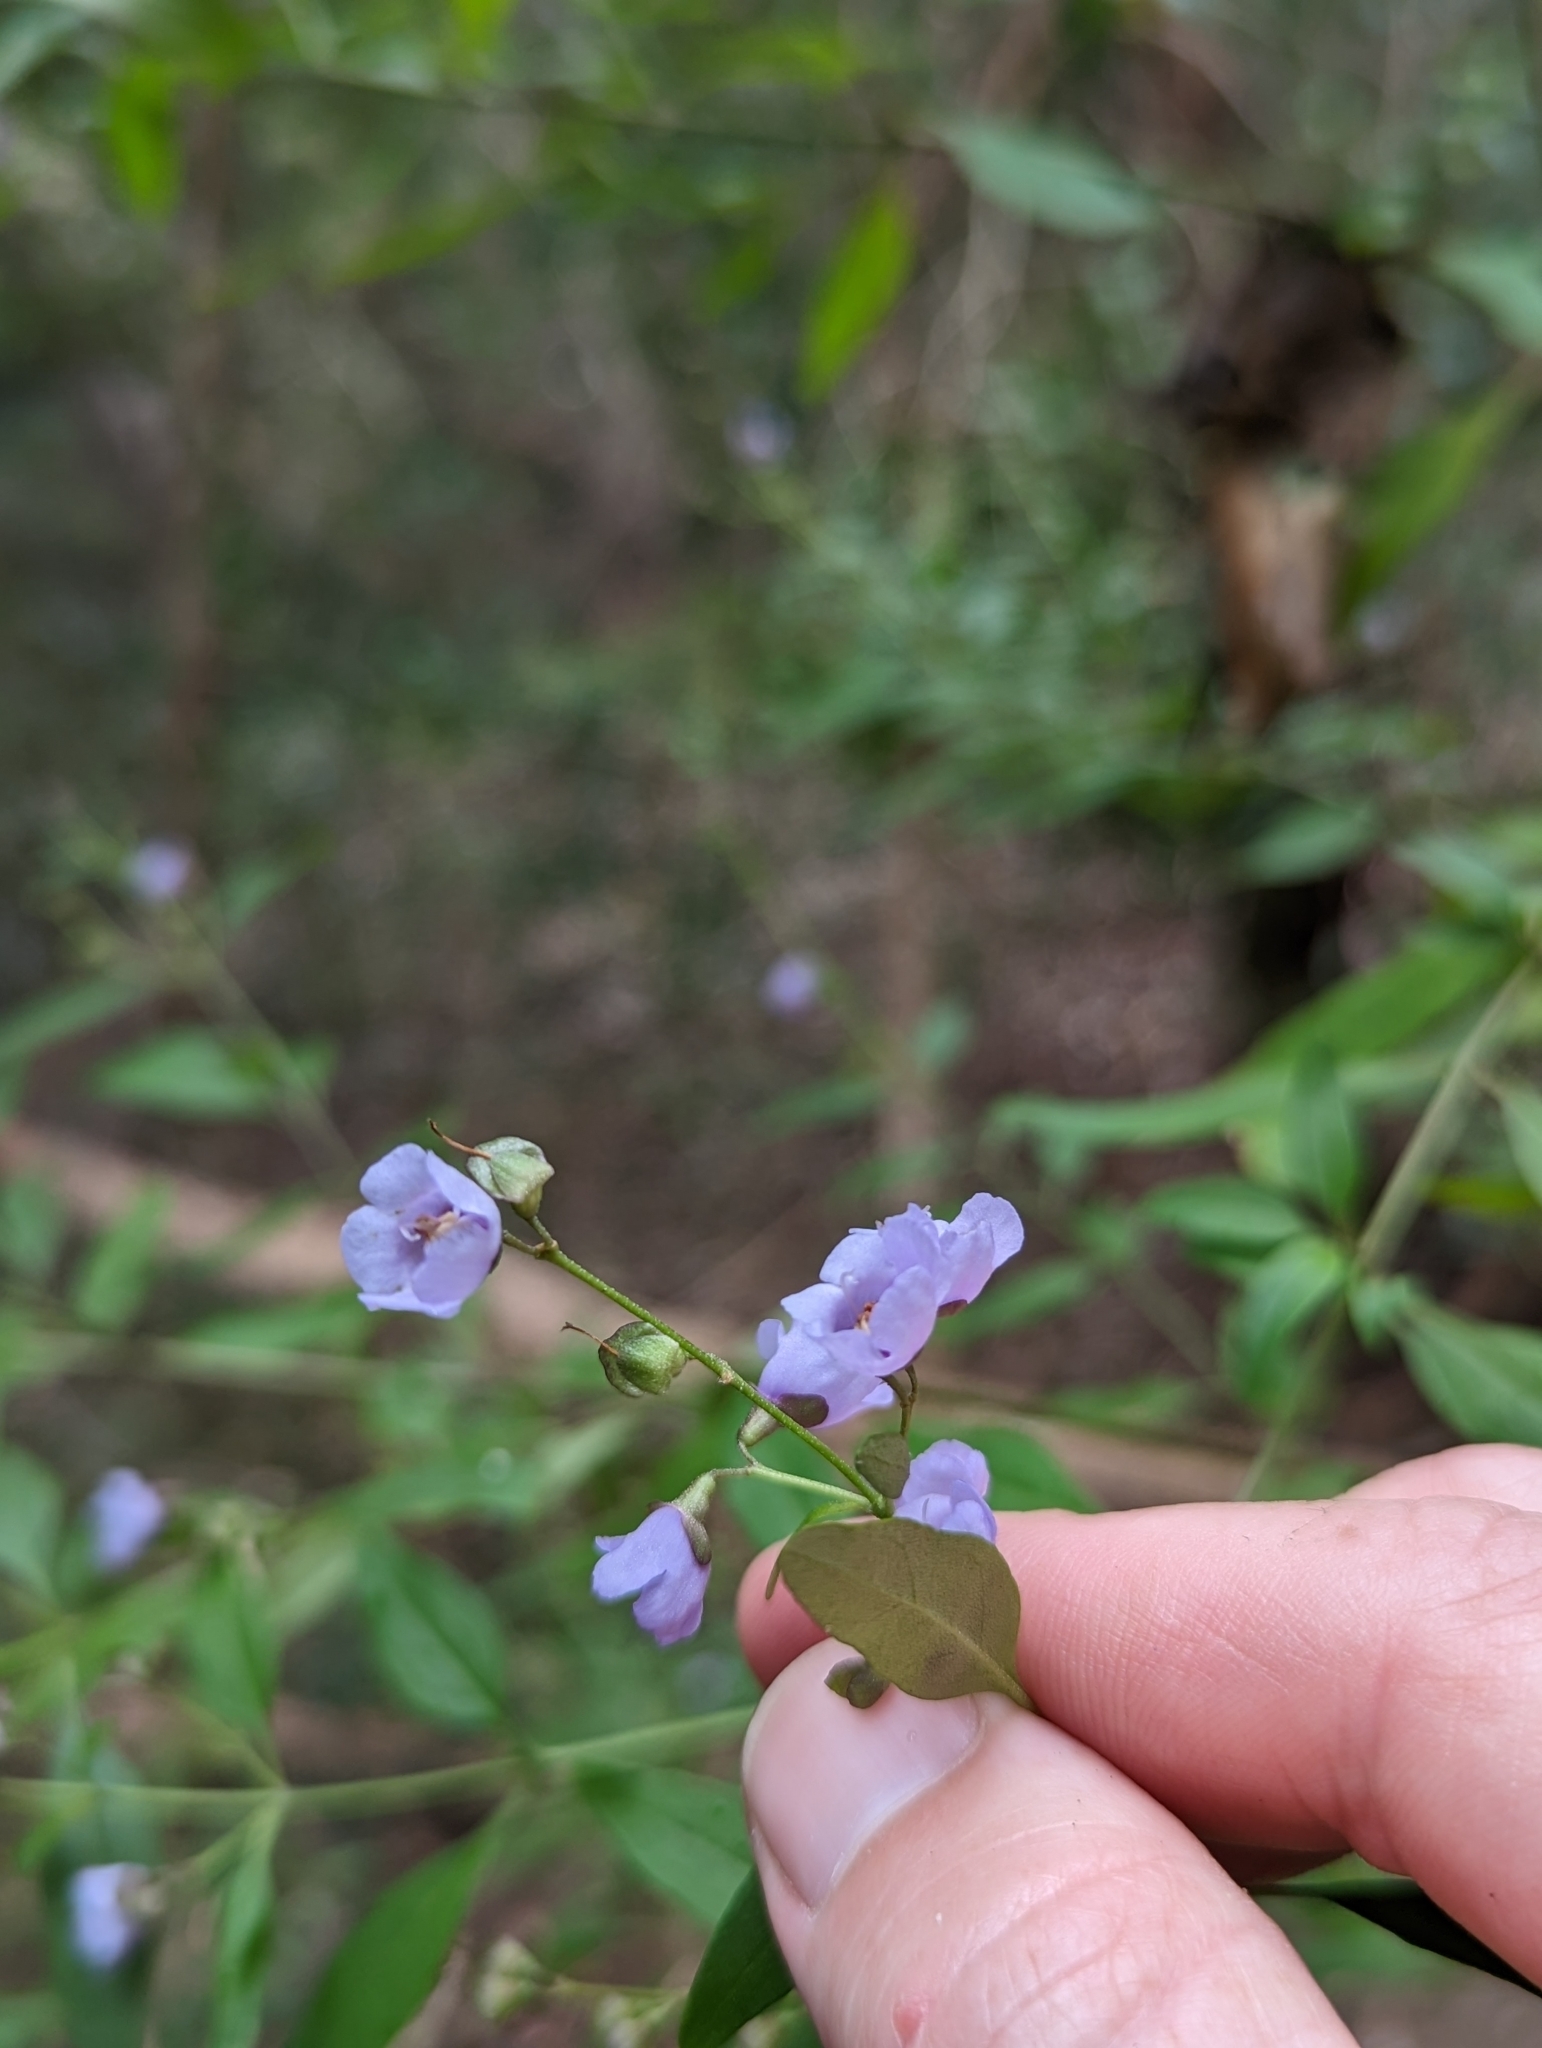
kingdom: Plantae
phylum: Tracheophyta
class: Magnoliopsida
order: Lamiales
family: Lamiaceae
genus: Prostanthera
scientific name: Prostanthera ovalifolia
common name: Purple mintbush
